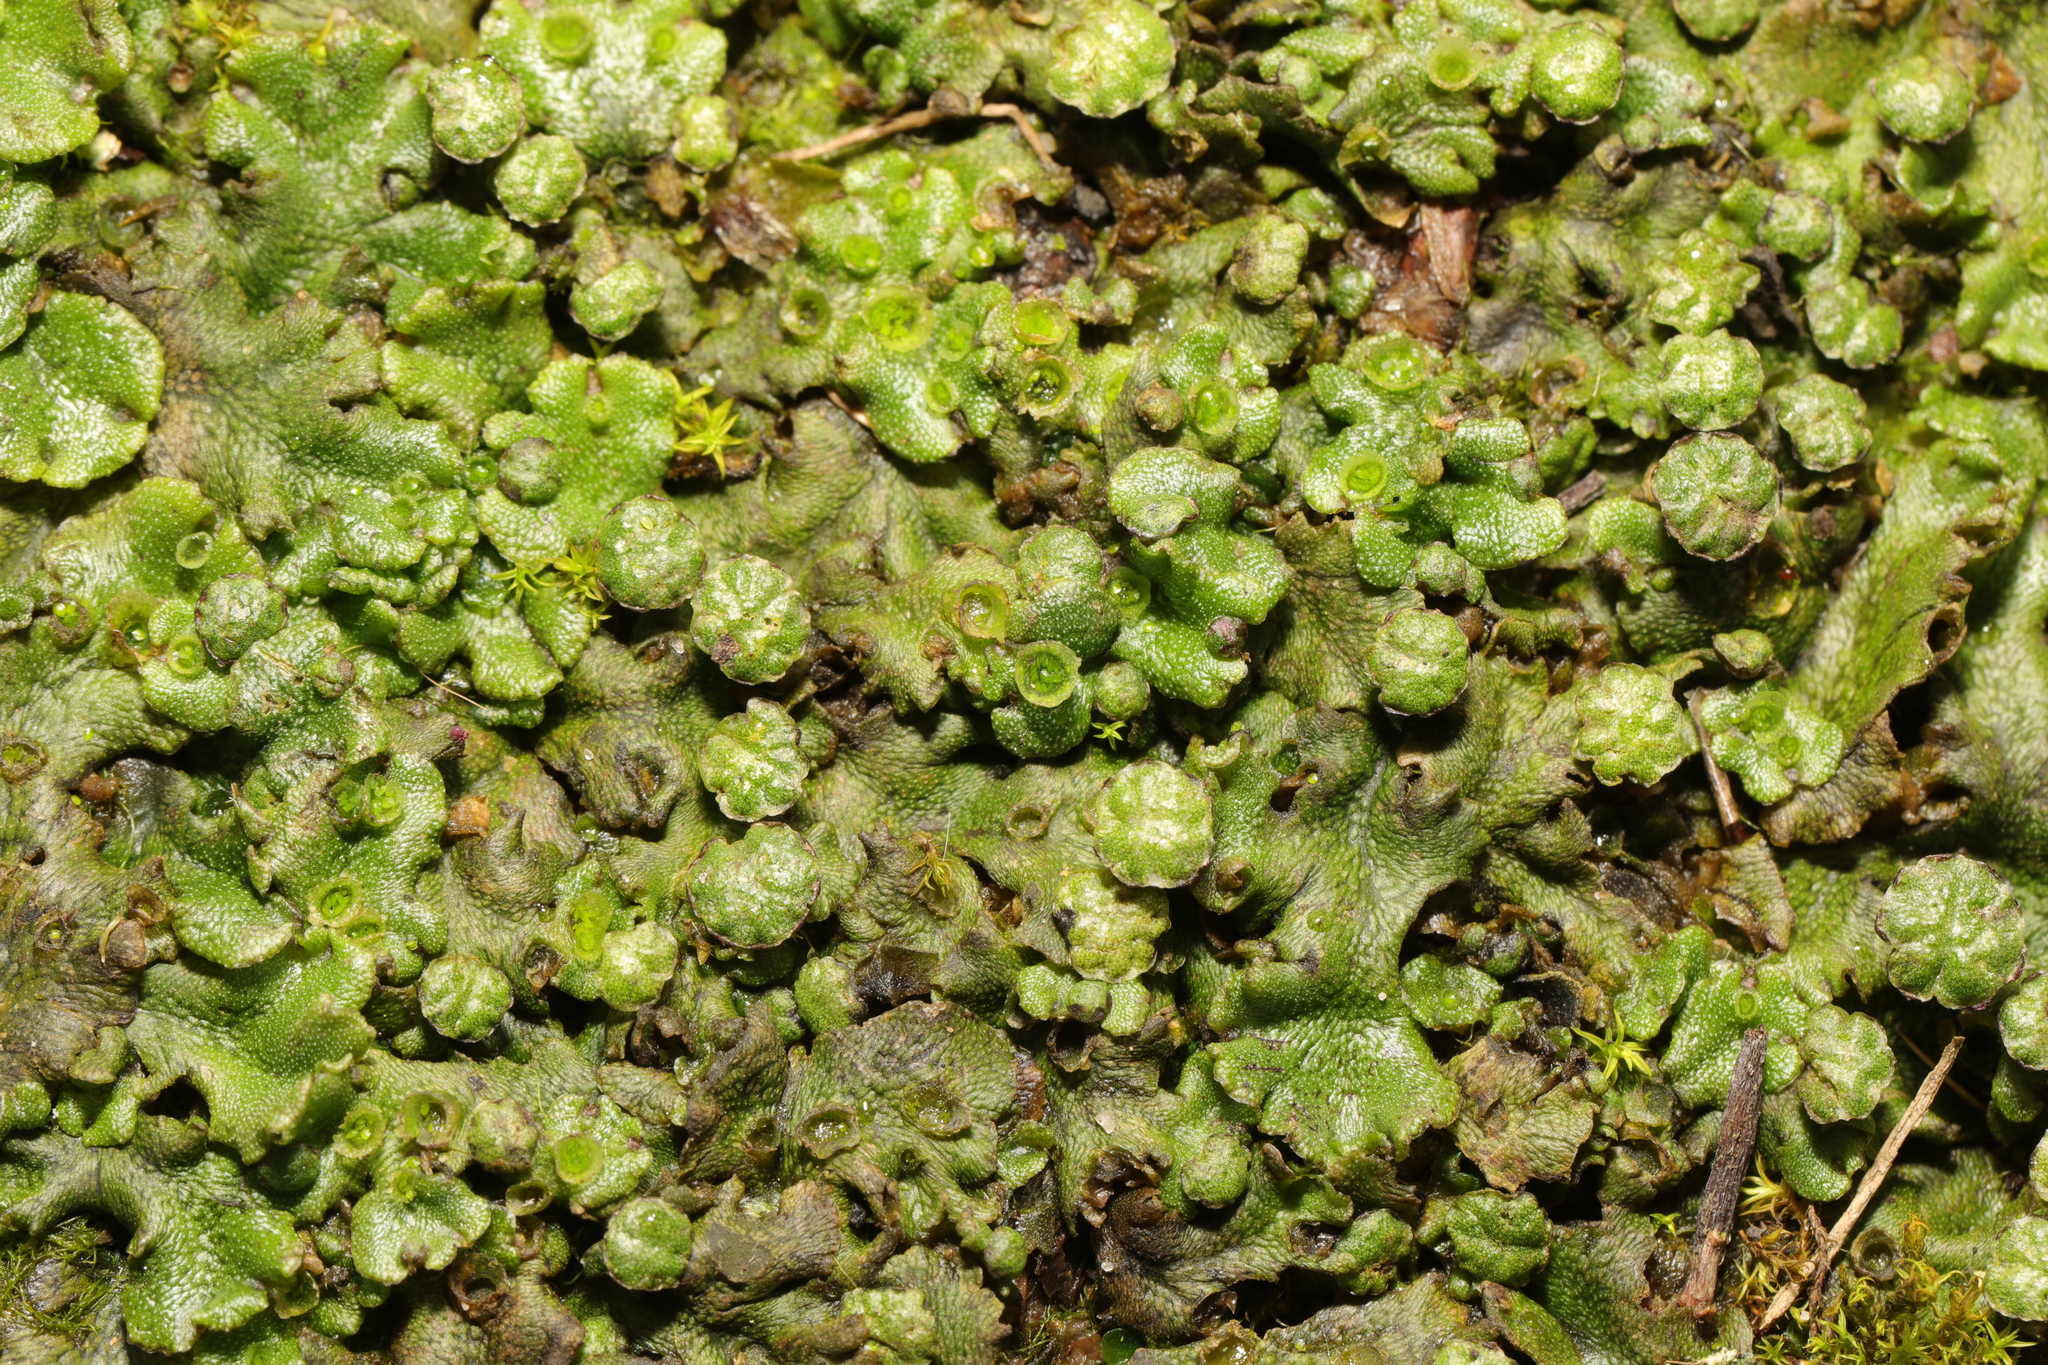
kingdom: Plantae
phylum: Marchantiophyta
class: Marchantiopsida
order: Marchantiales
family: Marchantiaceae
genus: Marchantia
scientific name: Marchantia polymorpha
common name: Common liverwort
